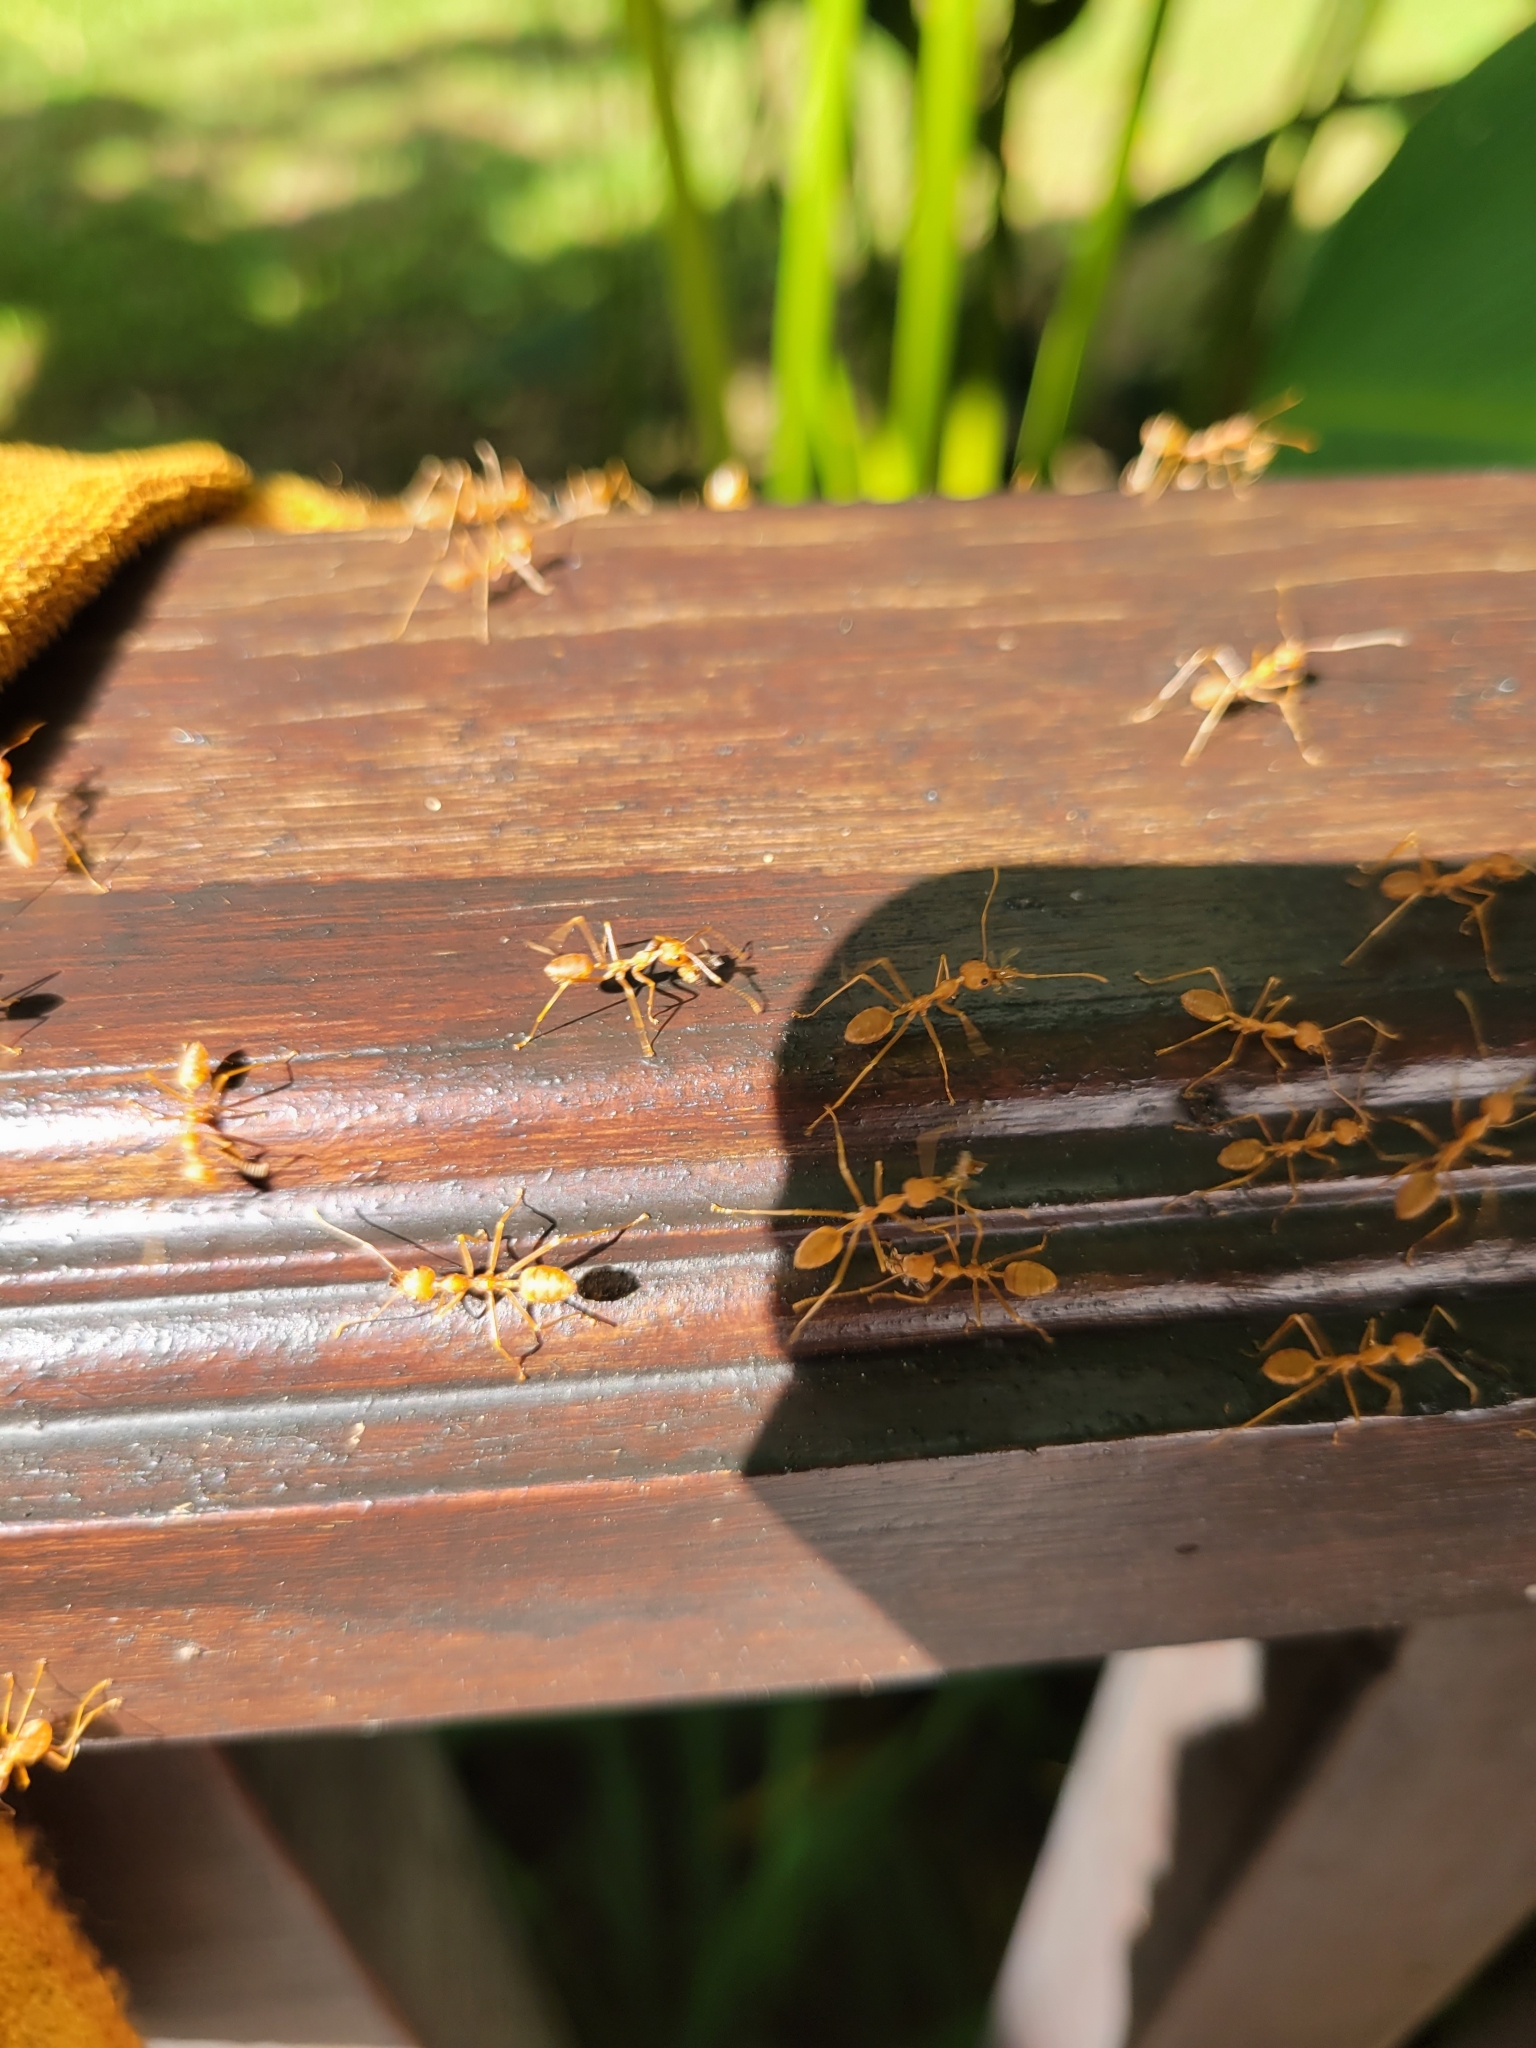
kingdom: Animalia
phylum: Arthropoda
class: Insecta
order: Hymenoptera
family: Formicidae
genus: Oecophylla
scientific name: Oecophylla smaragdina
